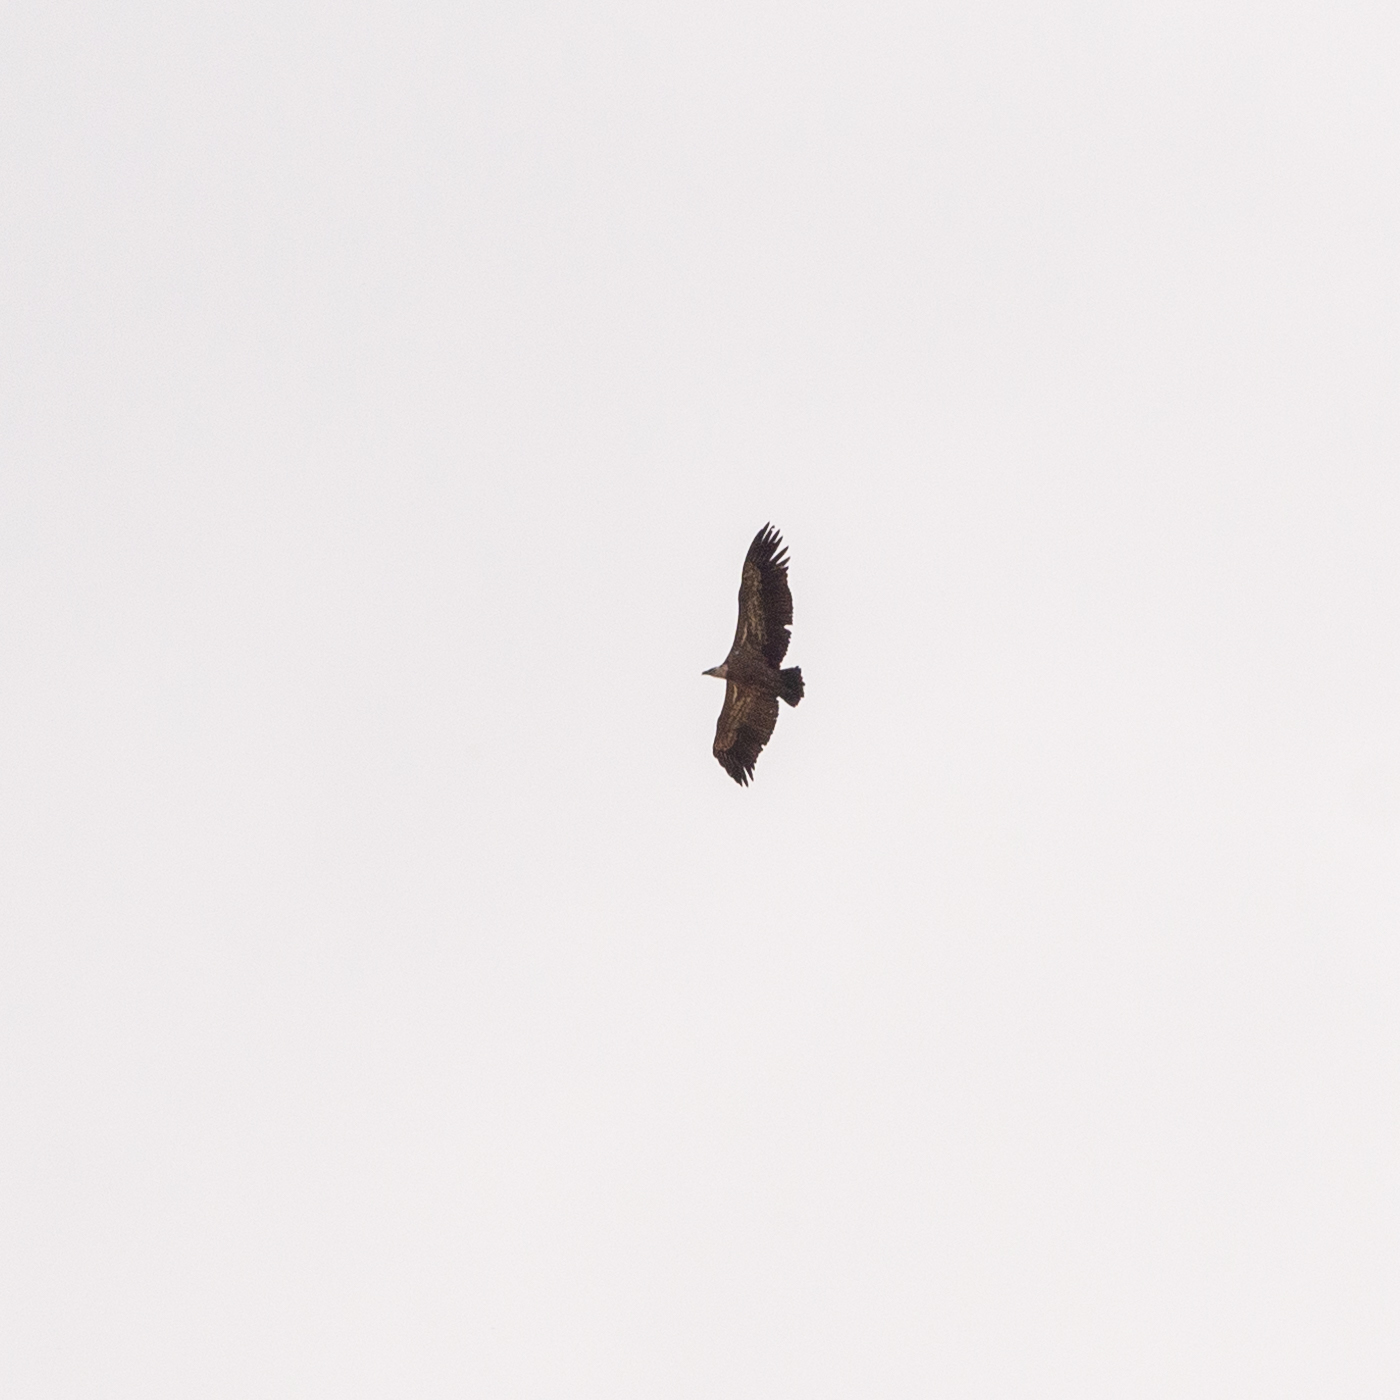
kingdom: Animalia
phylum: Chordata
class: Aves
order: Accipitriformes
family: Accipitridae
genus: Gyps
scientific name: Gyps fulvus
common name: Griffon vulture
